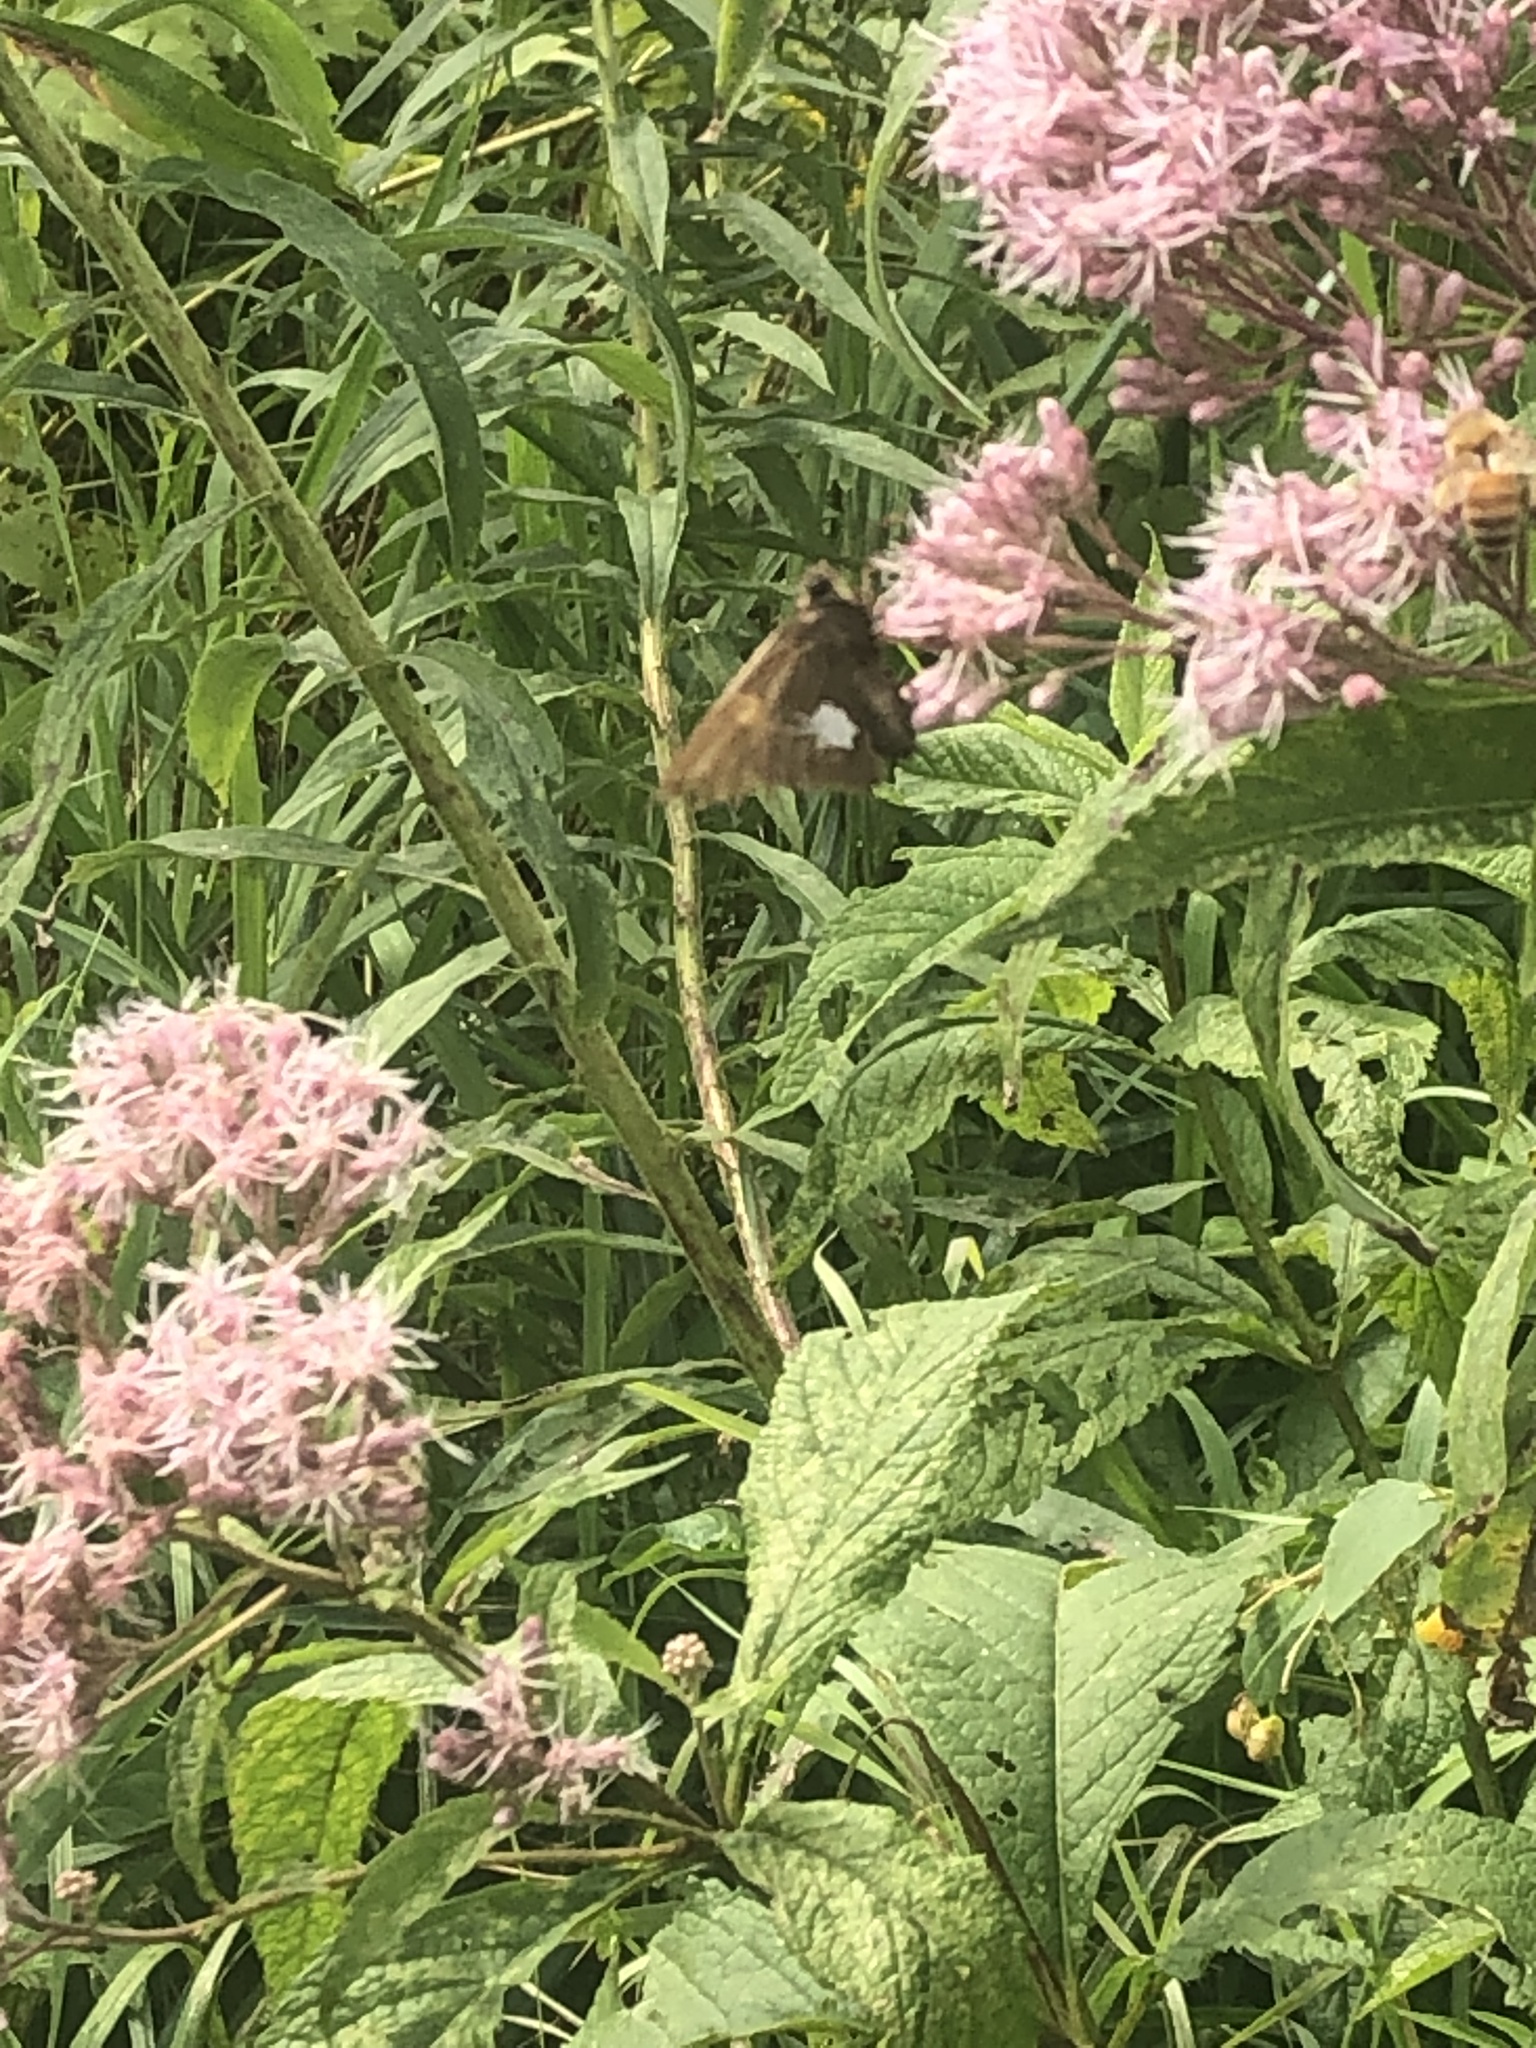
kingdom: Animalia
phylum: Arthropoda
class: Insecta
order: Lepidoptera
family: Hesperiidae
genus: Epargyreus
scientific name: Epargyreus clarus
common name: Silver-spotted skipper
